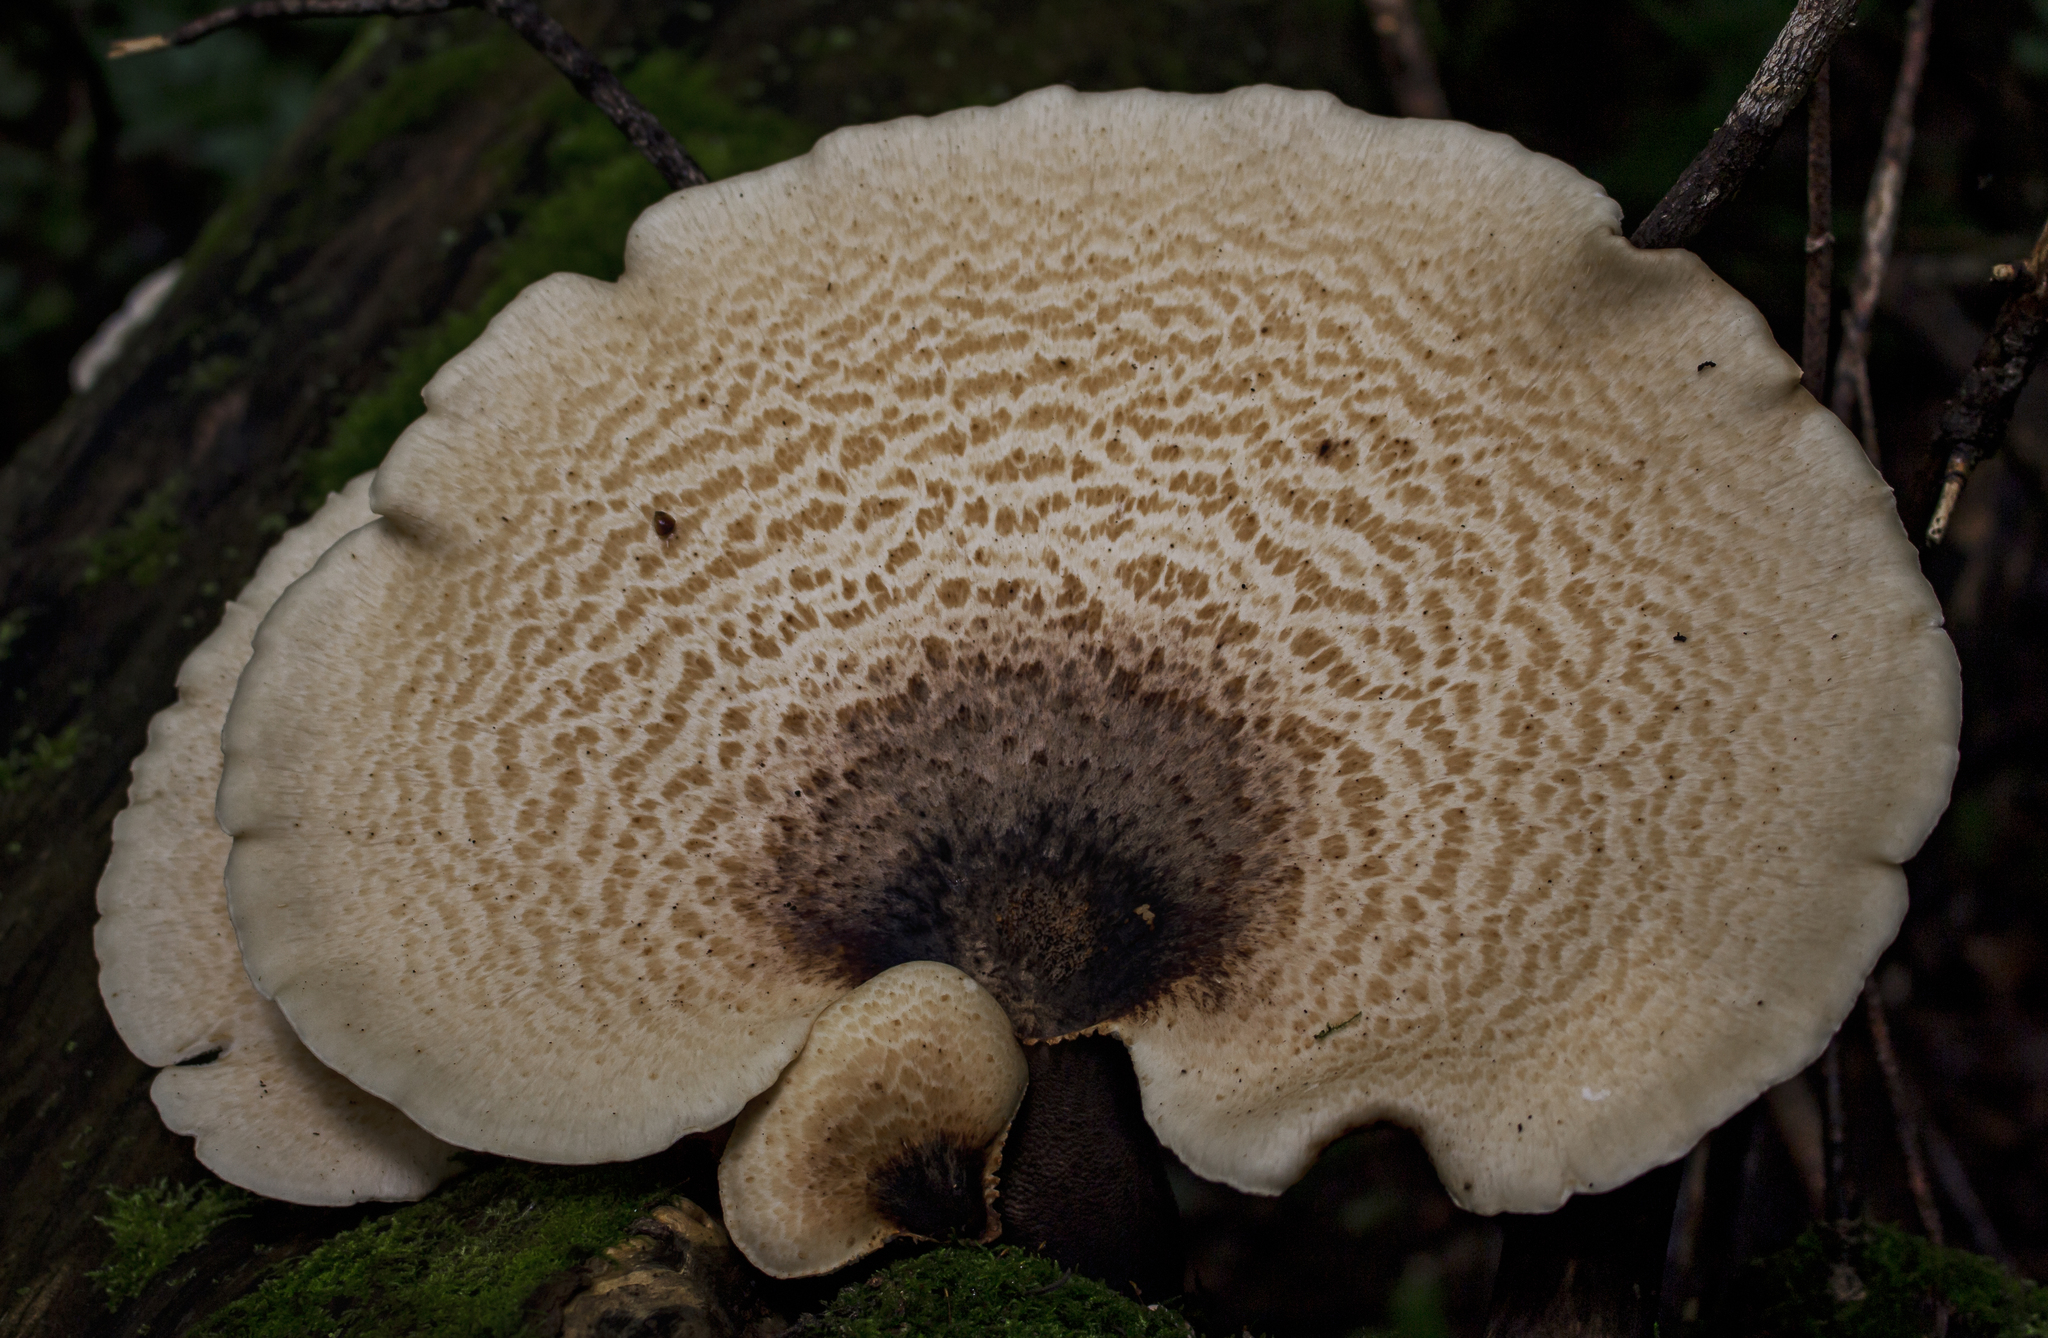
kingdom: Fungi
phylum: Basidiomycota
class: Agaricomycetes
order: Polyporales
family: Polyporaceae
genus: Cerioporus
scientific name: Cerioporus squamosus
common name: Dryad's saddle
